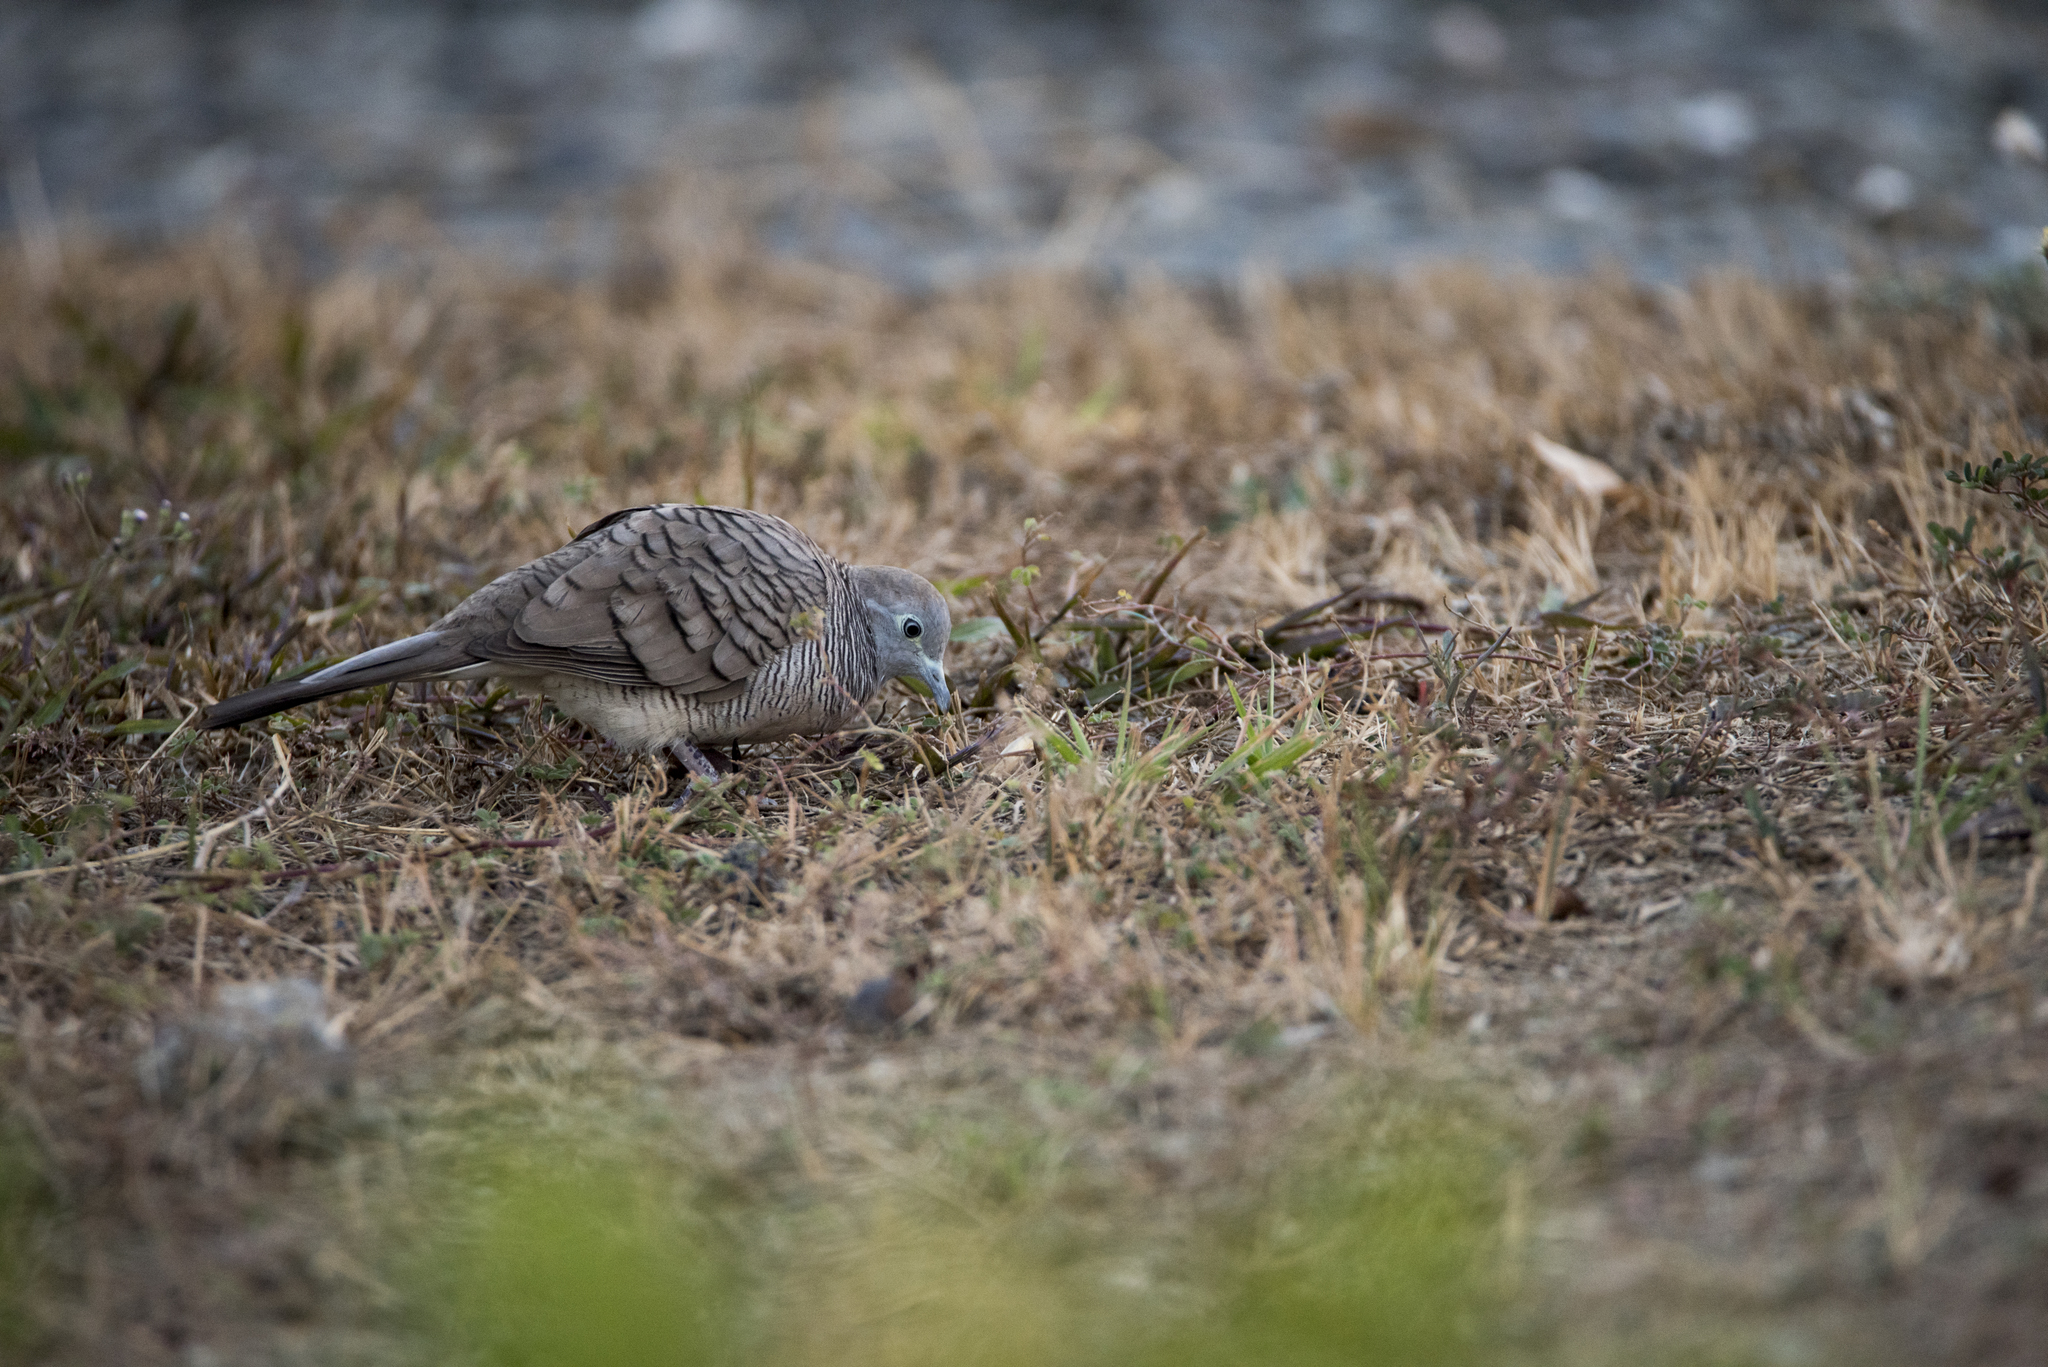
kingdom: Animalia
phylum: Chordata
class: Aves
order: Columbiformes
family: Columbidae
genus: Geopelia
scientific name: Geopelia striata
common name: Zebra dove
